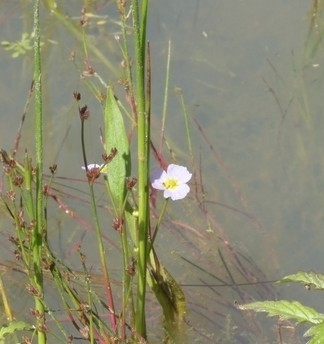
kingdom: Plantae
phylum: Tracheophyta
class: Liliopsida
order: Alismatales
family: Alismataceae
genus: Baldellia
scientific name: Baldellia ranunculoides
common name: Lesser water-plantain
